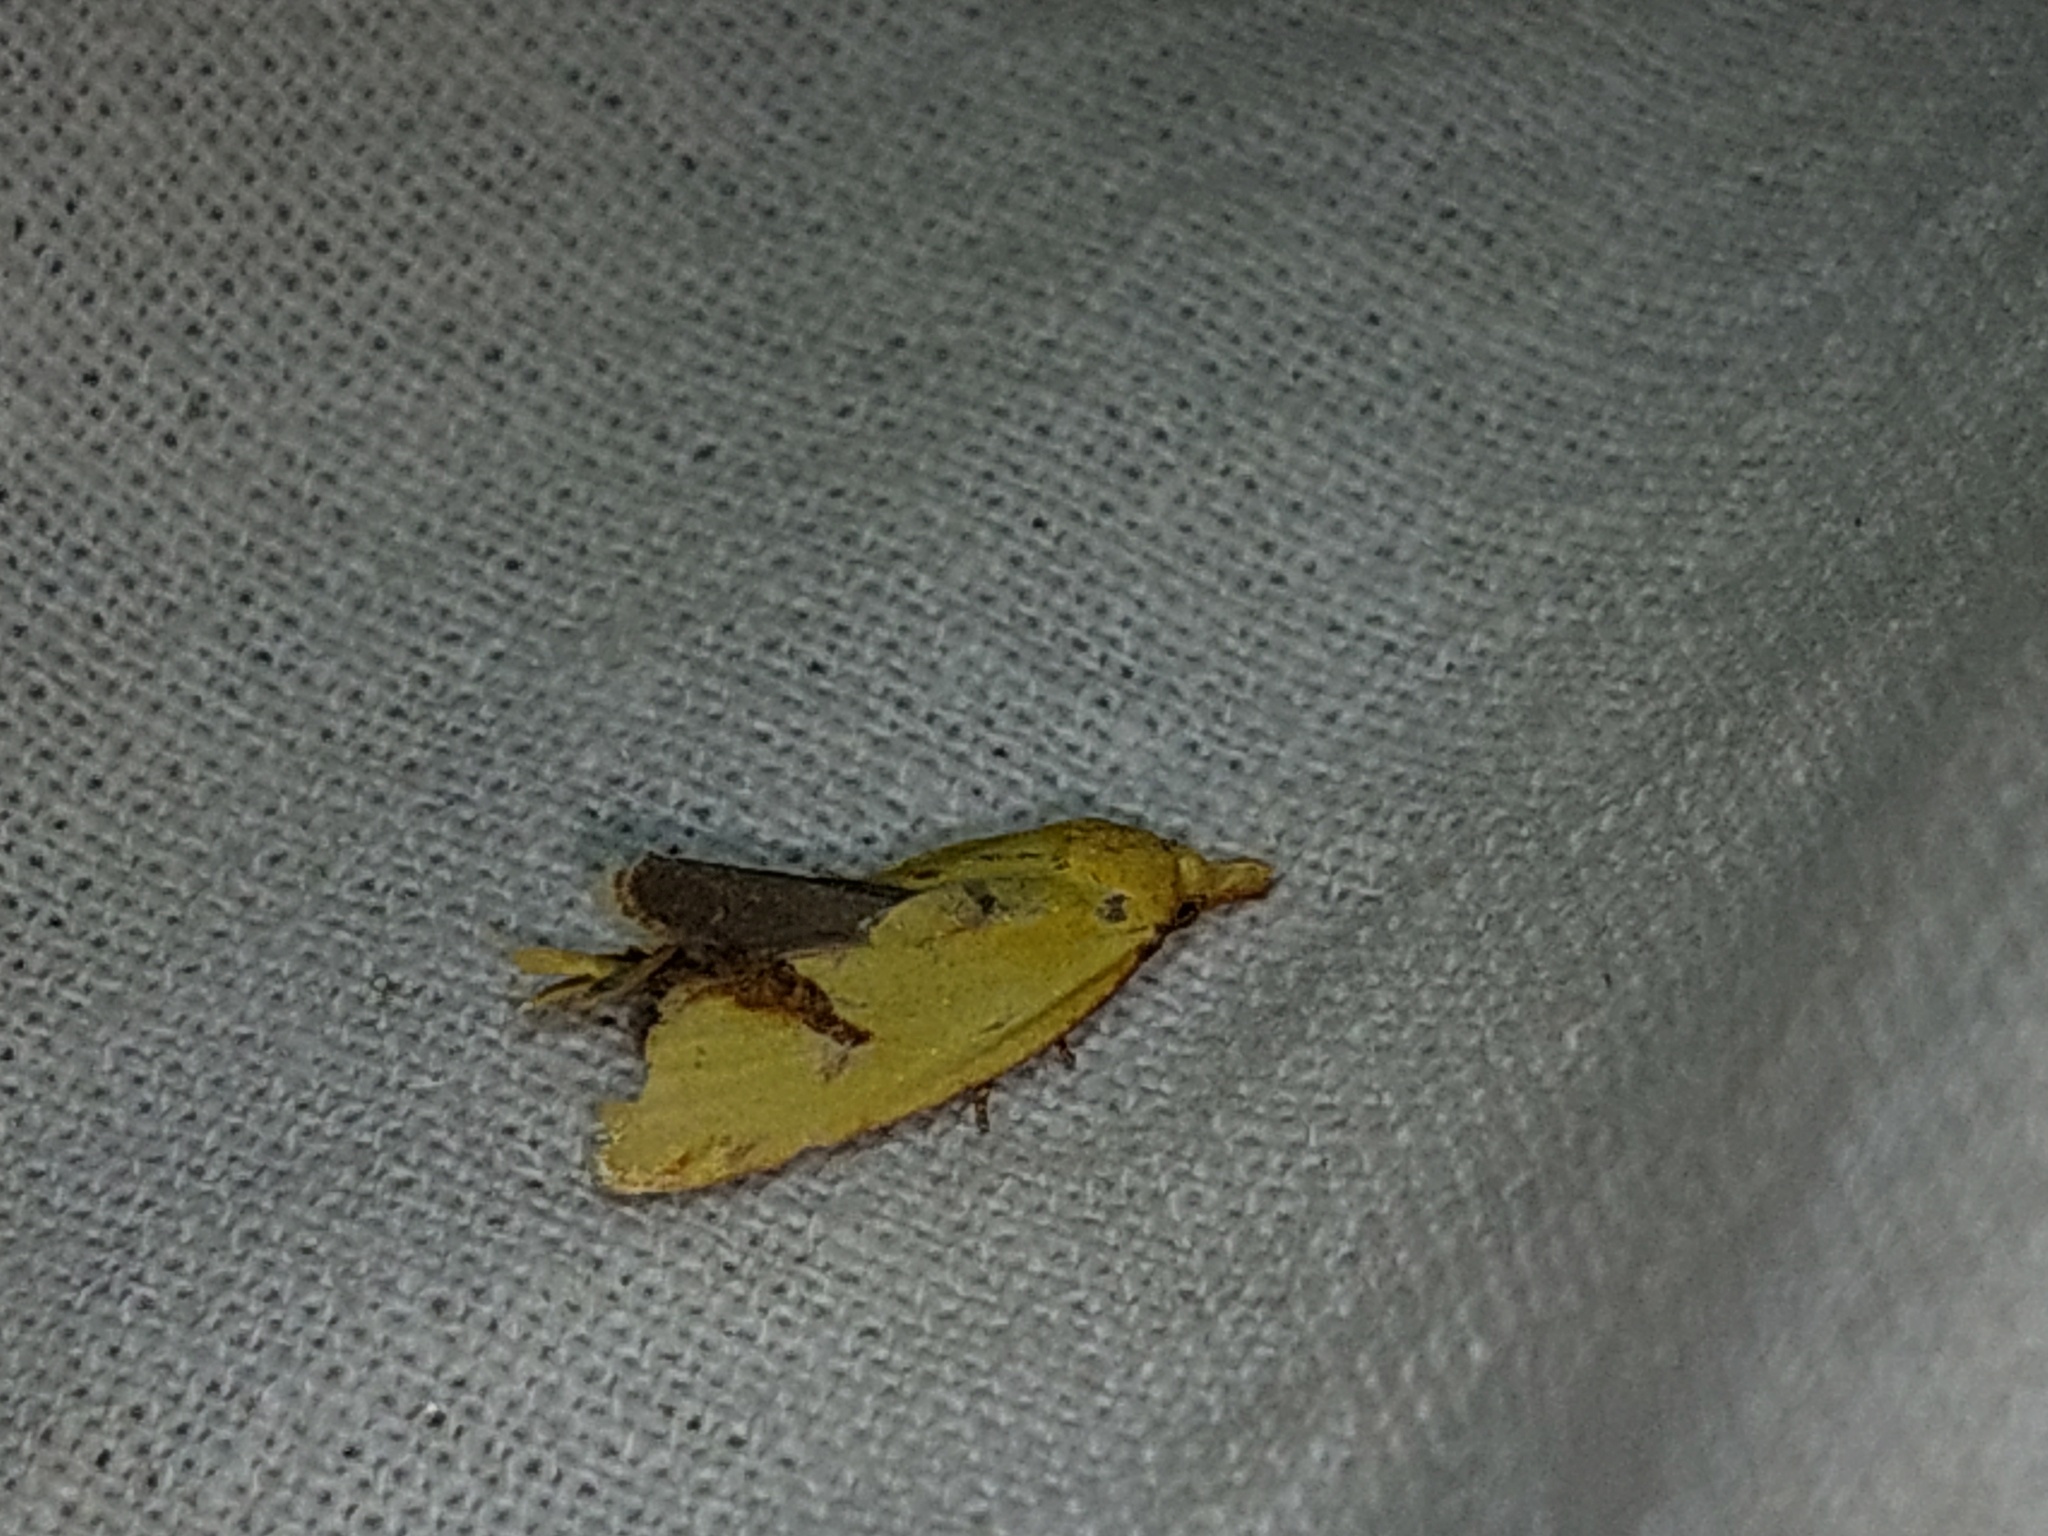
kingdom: Animalia
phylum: Arthropoda
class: Insecta
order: Lepidoptera
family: Tortricidae
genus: Agapeta
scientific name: Agapeta hamana
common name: Common yellow conch
